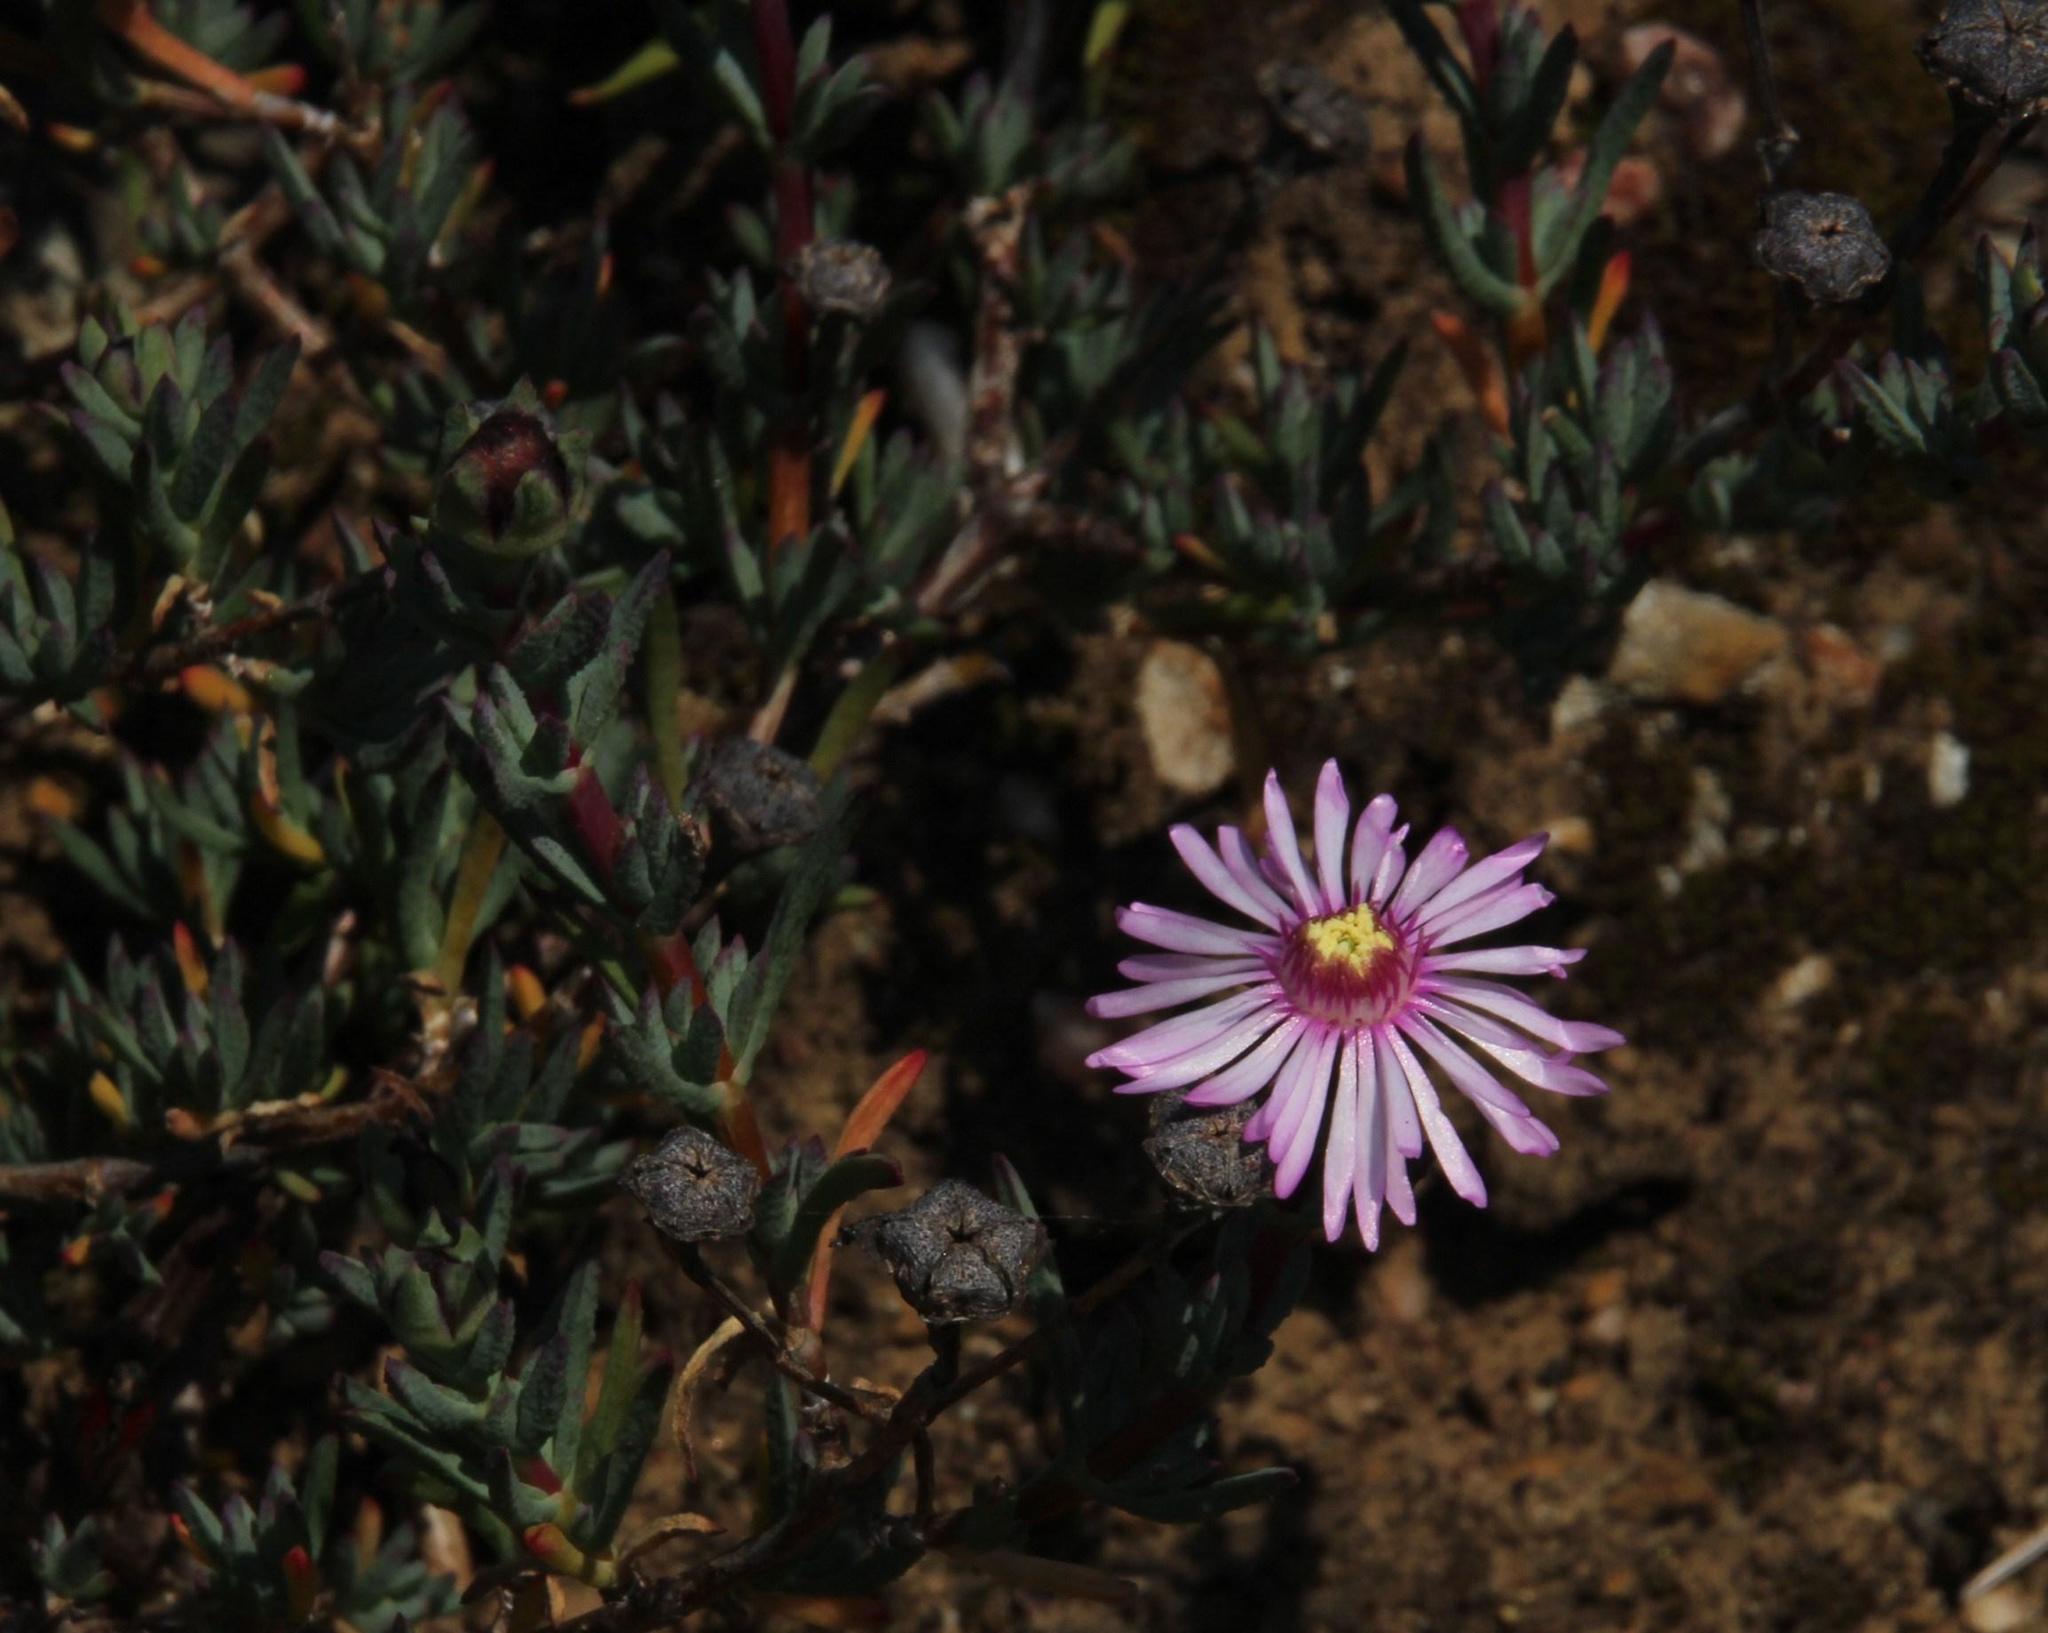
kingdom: Plantae
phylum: Tracheophyta
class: Magnoliopsida
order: Caryophyllales
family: Aizoaceae
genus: Lampranthus
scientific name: Lampranthus elegans
